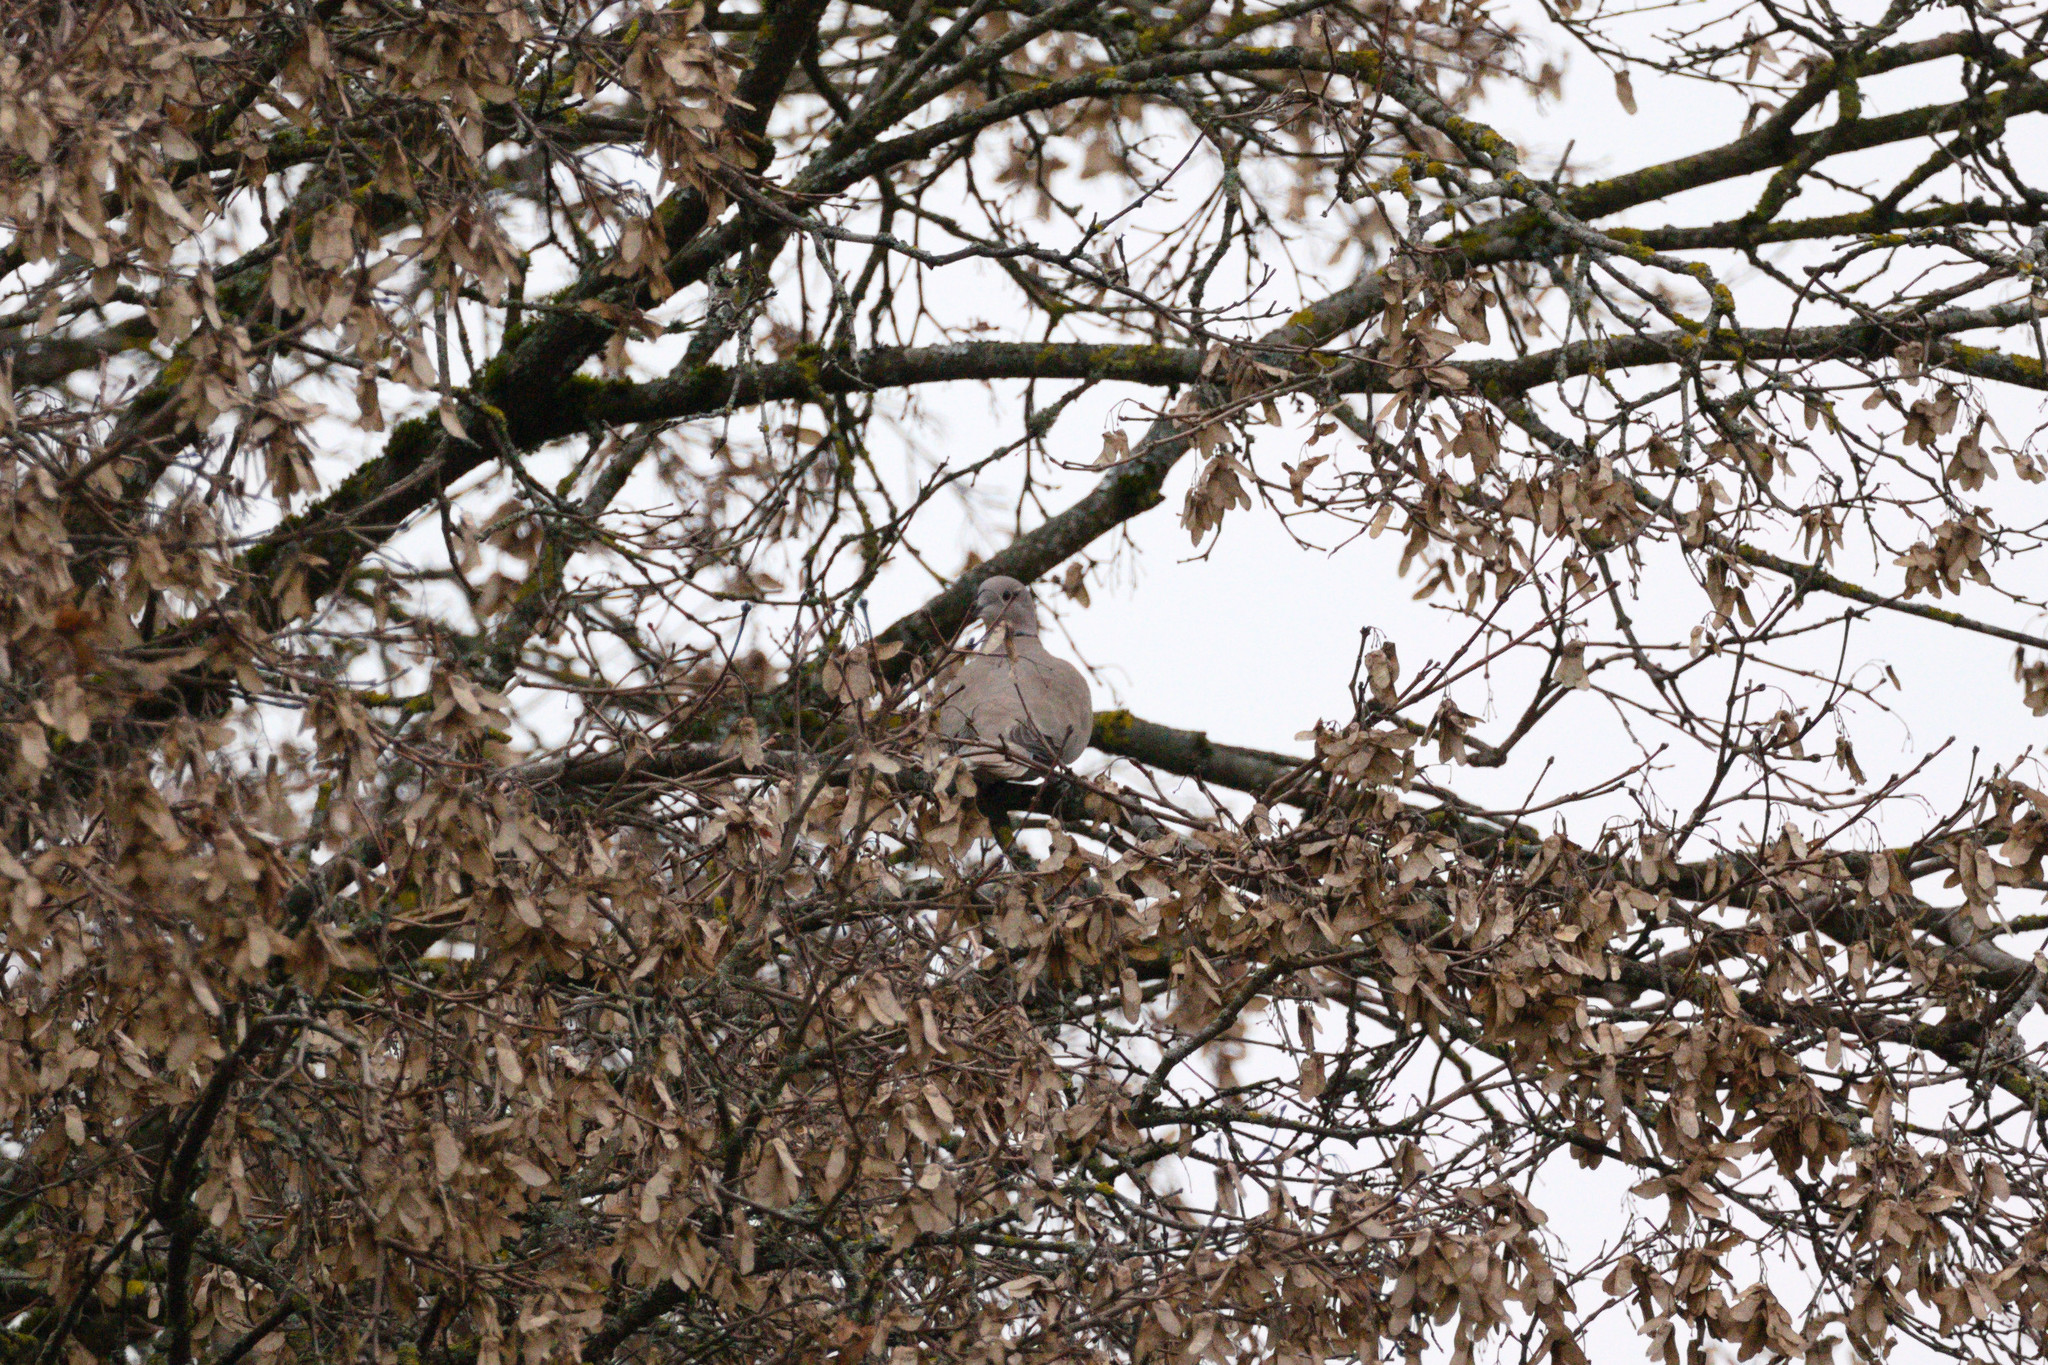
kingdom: Animalia
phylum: Chordata
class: Aves
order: Columbiformes
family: Columbidae
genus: Streptopelia
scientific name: Streptopelia decaocto
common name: Eurasian collared dove
